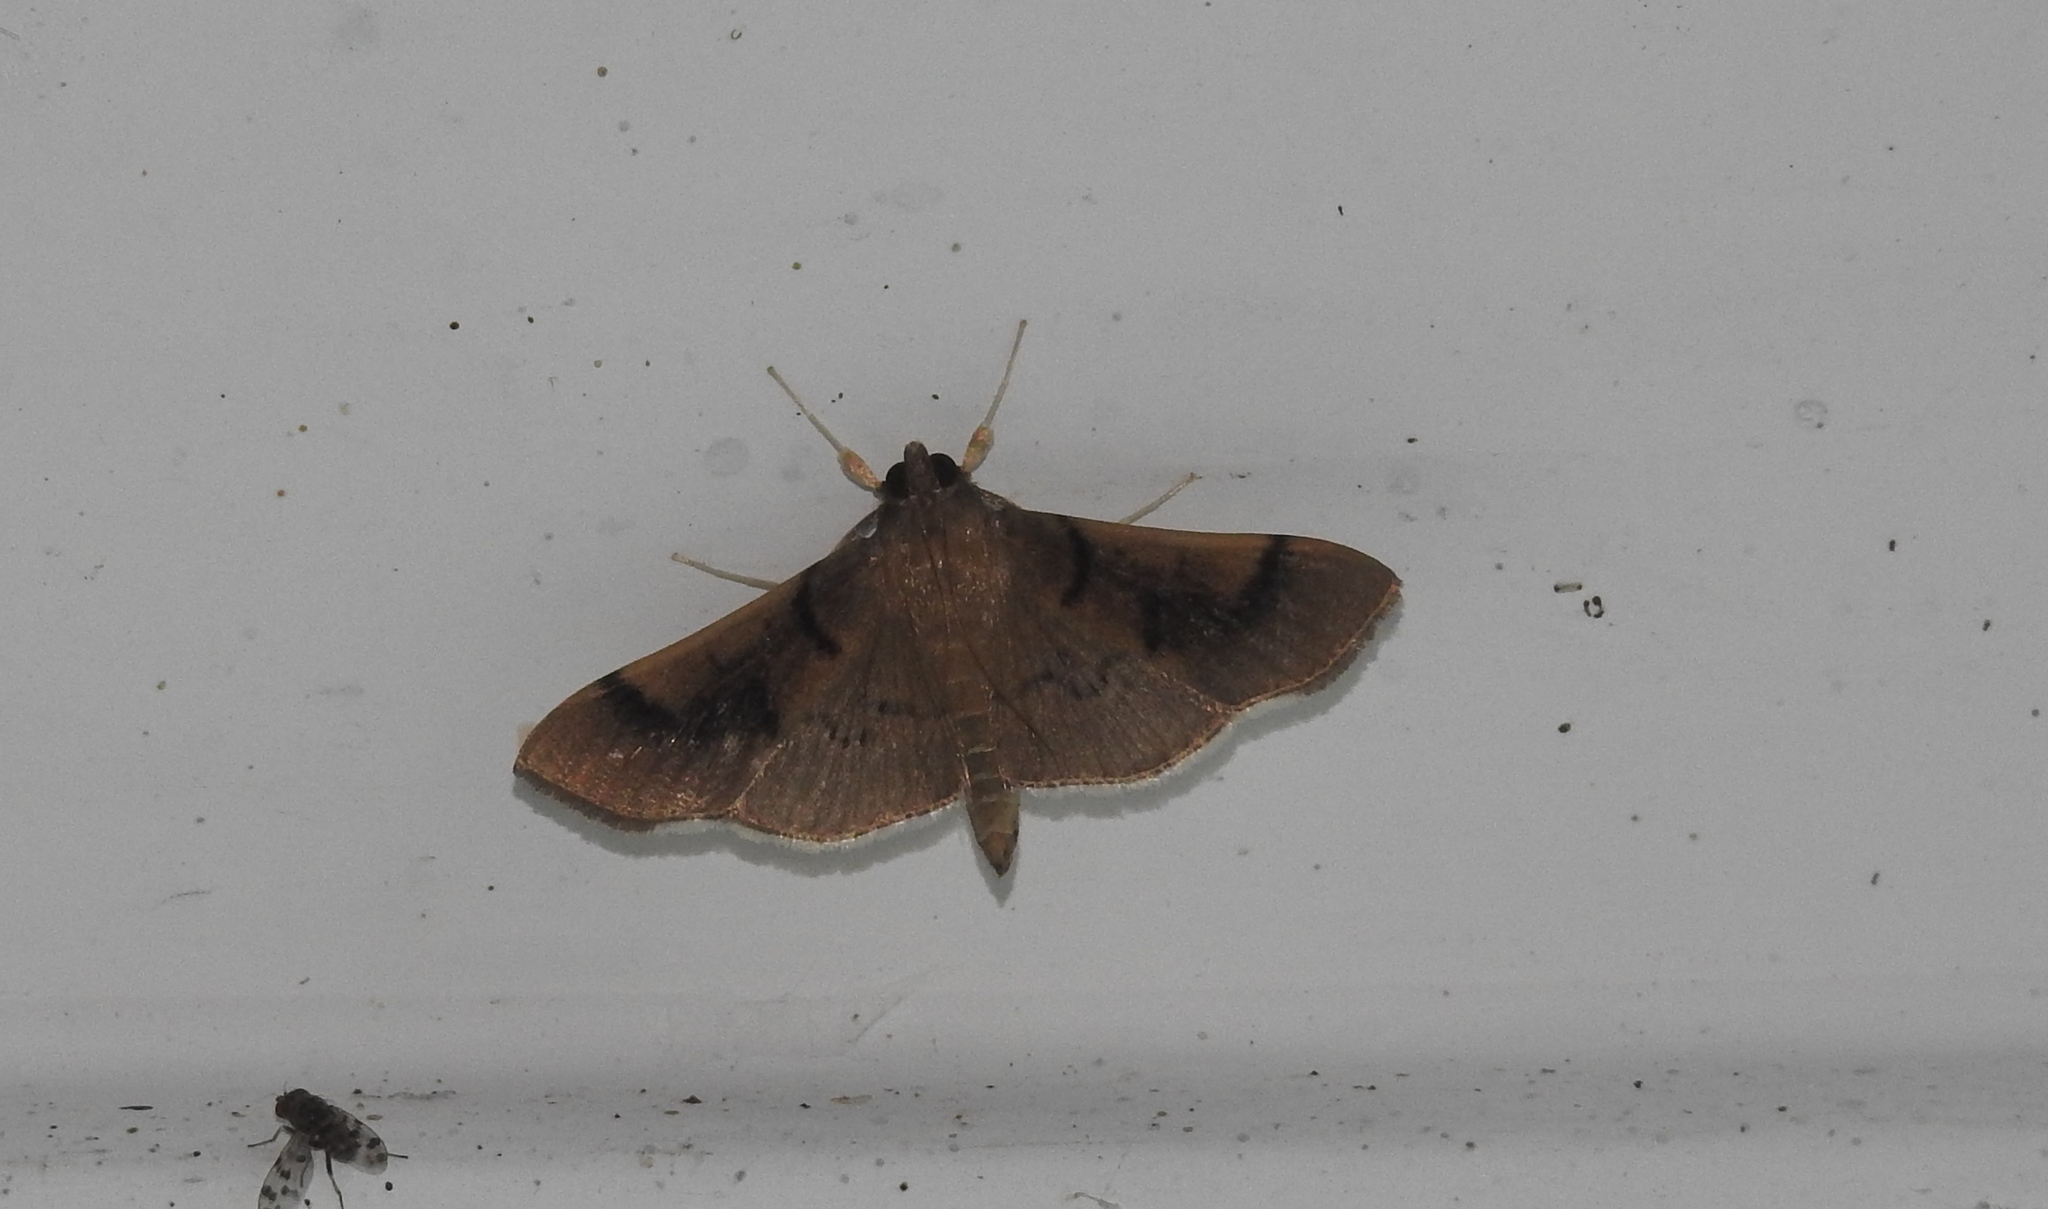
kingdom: Animalia
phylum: Arthropoda
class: Insecta
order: Lepidoptera
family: Crambidae
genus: Omiodes
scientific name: Omiodes
